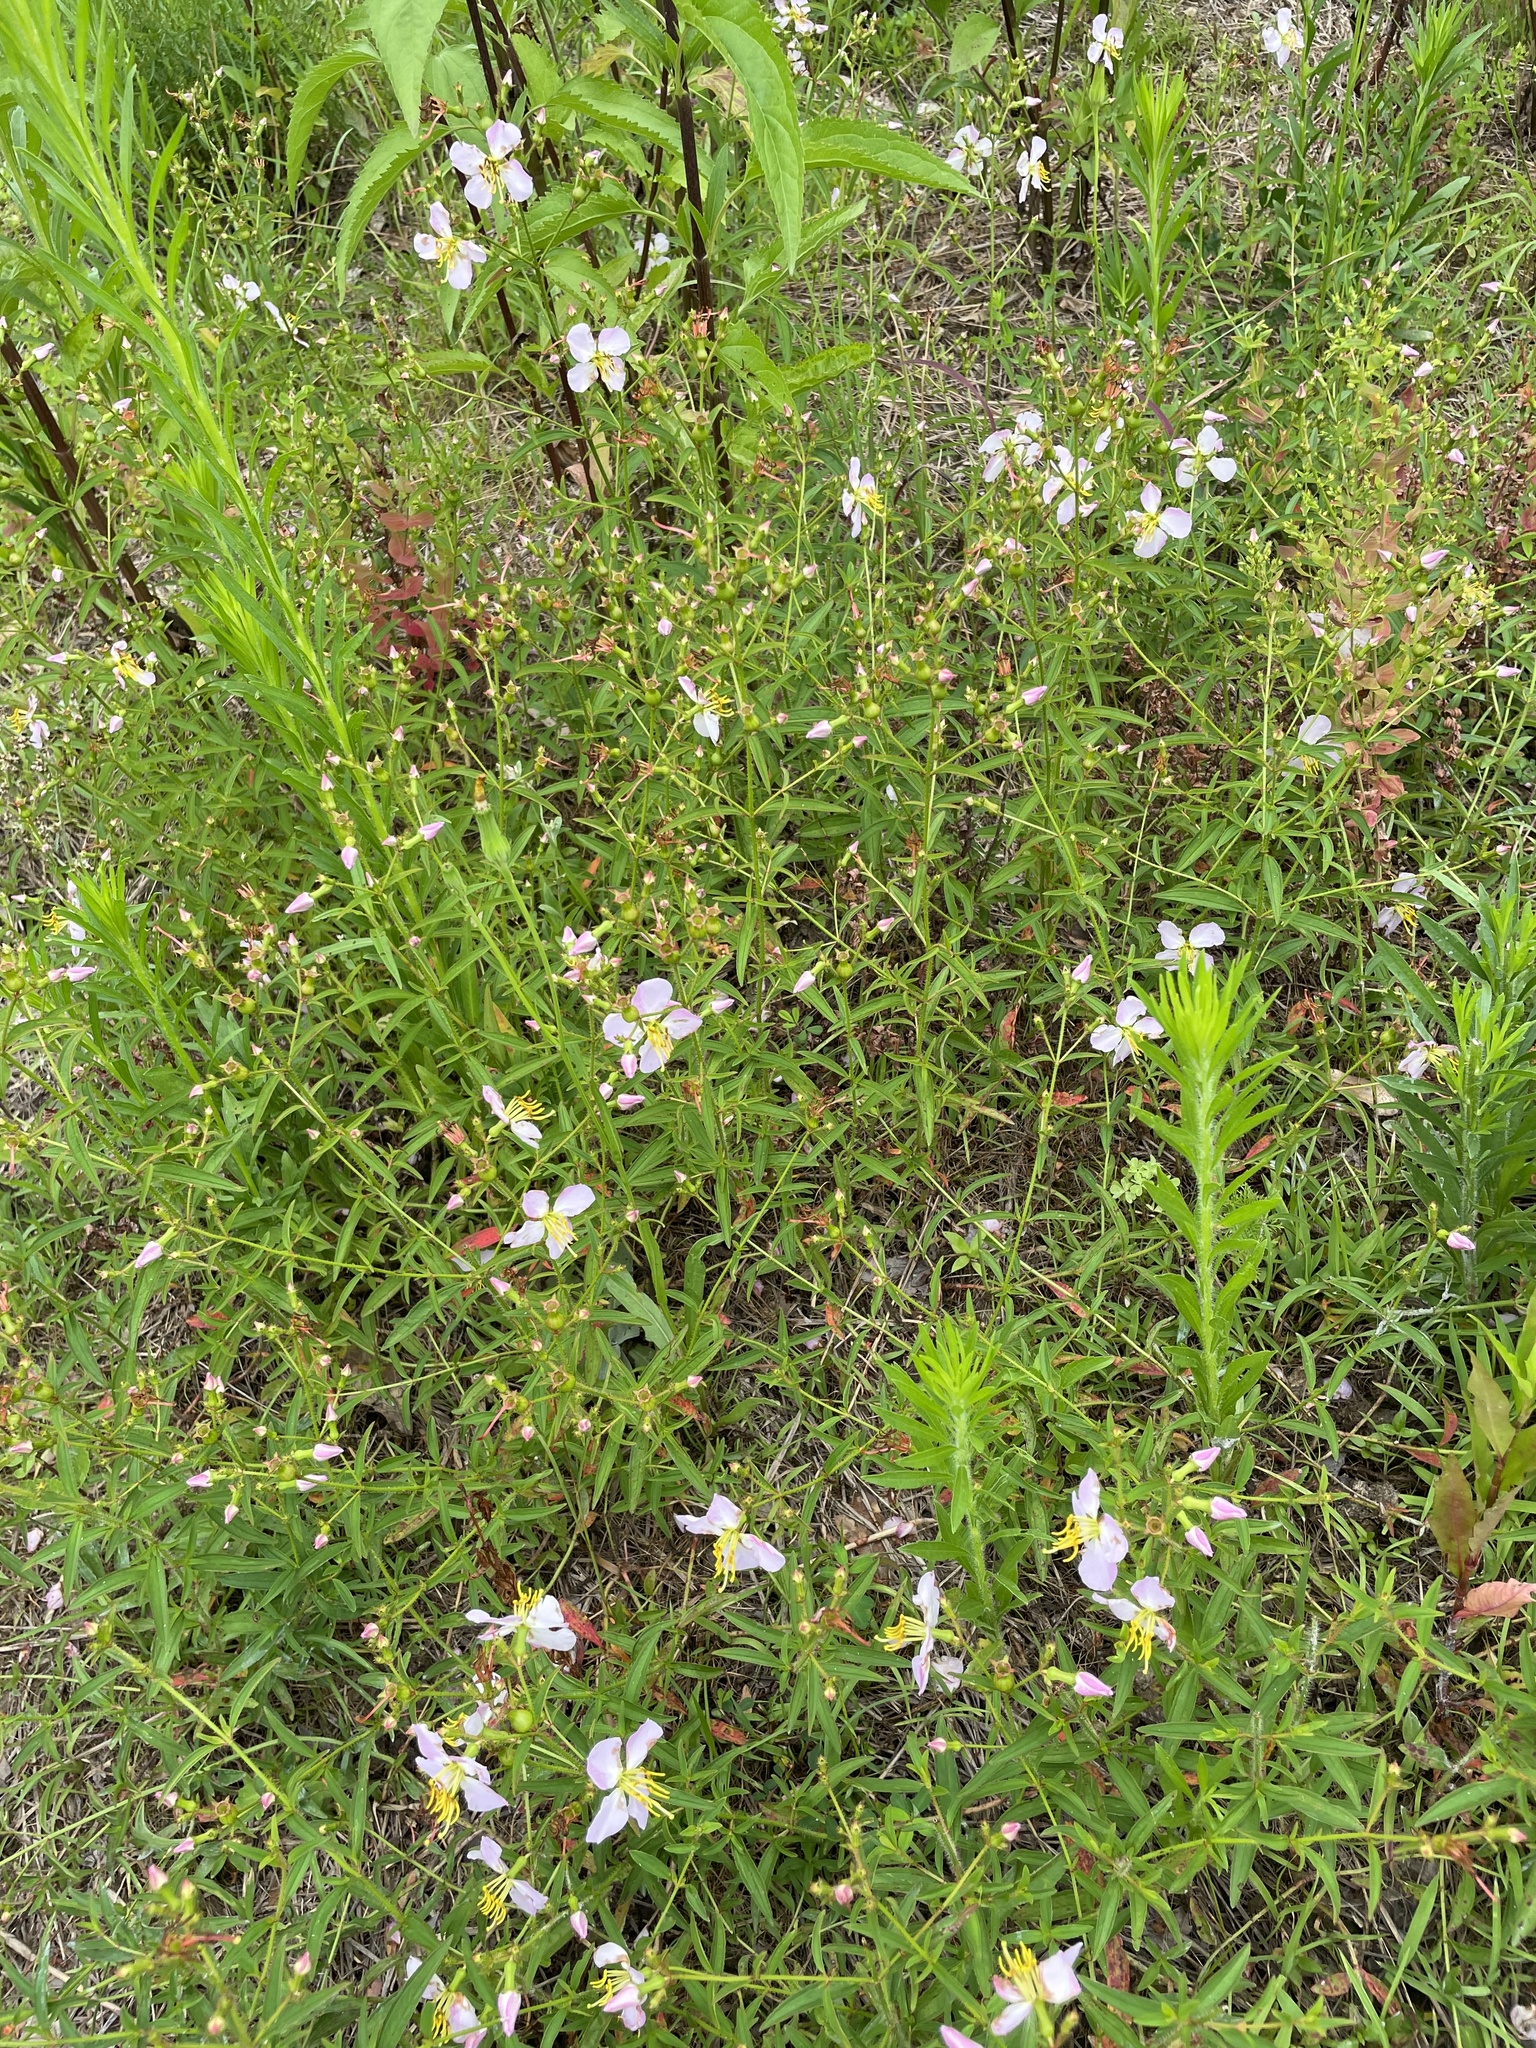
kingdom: Plantae
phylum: Tracheophyta
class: Magnoliopsida
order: Myrtales
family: Melastomataceae
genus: Rhexia
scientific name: Rhexia mariana
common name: Dull meadow-pitcher
